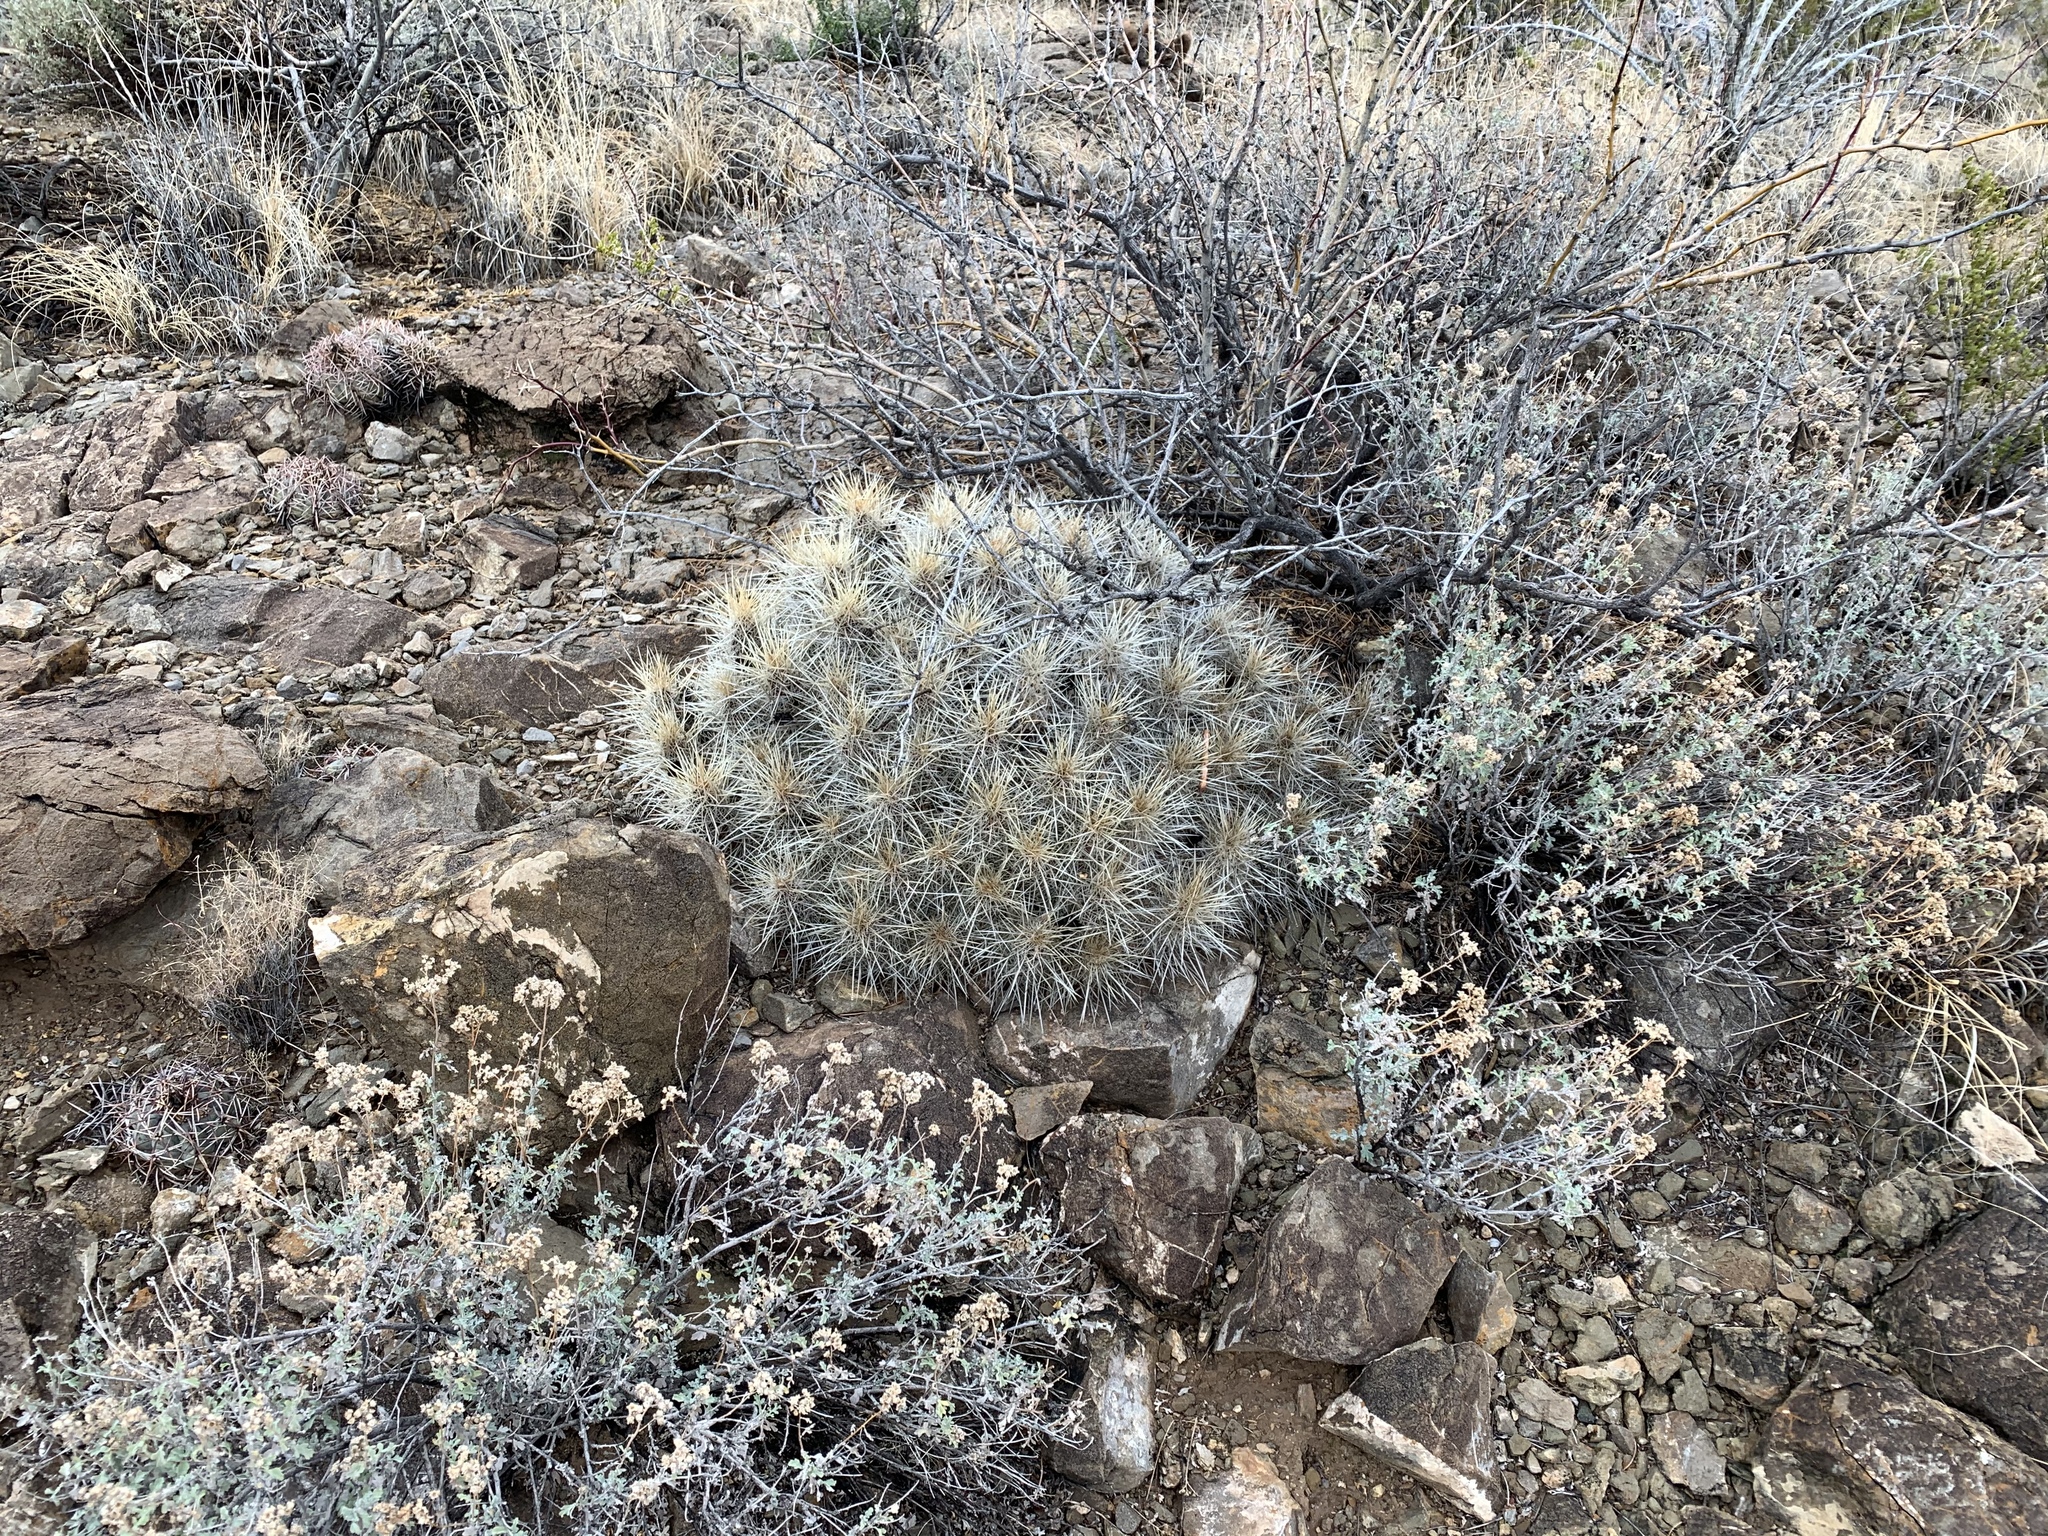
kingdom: Plantae
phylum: Tracheophyta
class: Magnoliopsida
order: Caryophyllales
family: Cactaceae
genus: Echinocereus
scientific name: Echinocereus stramineus
